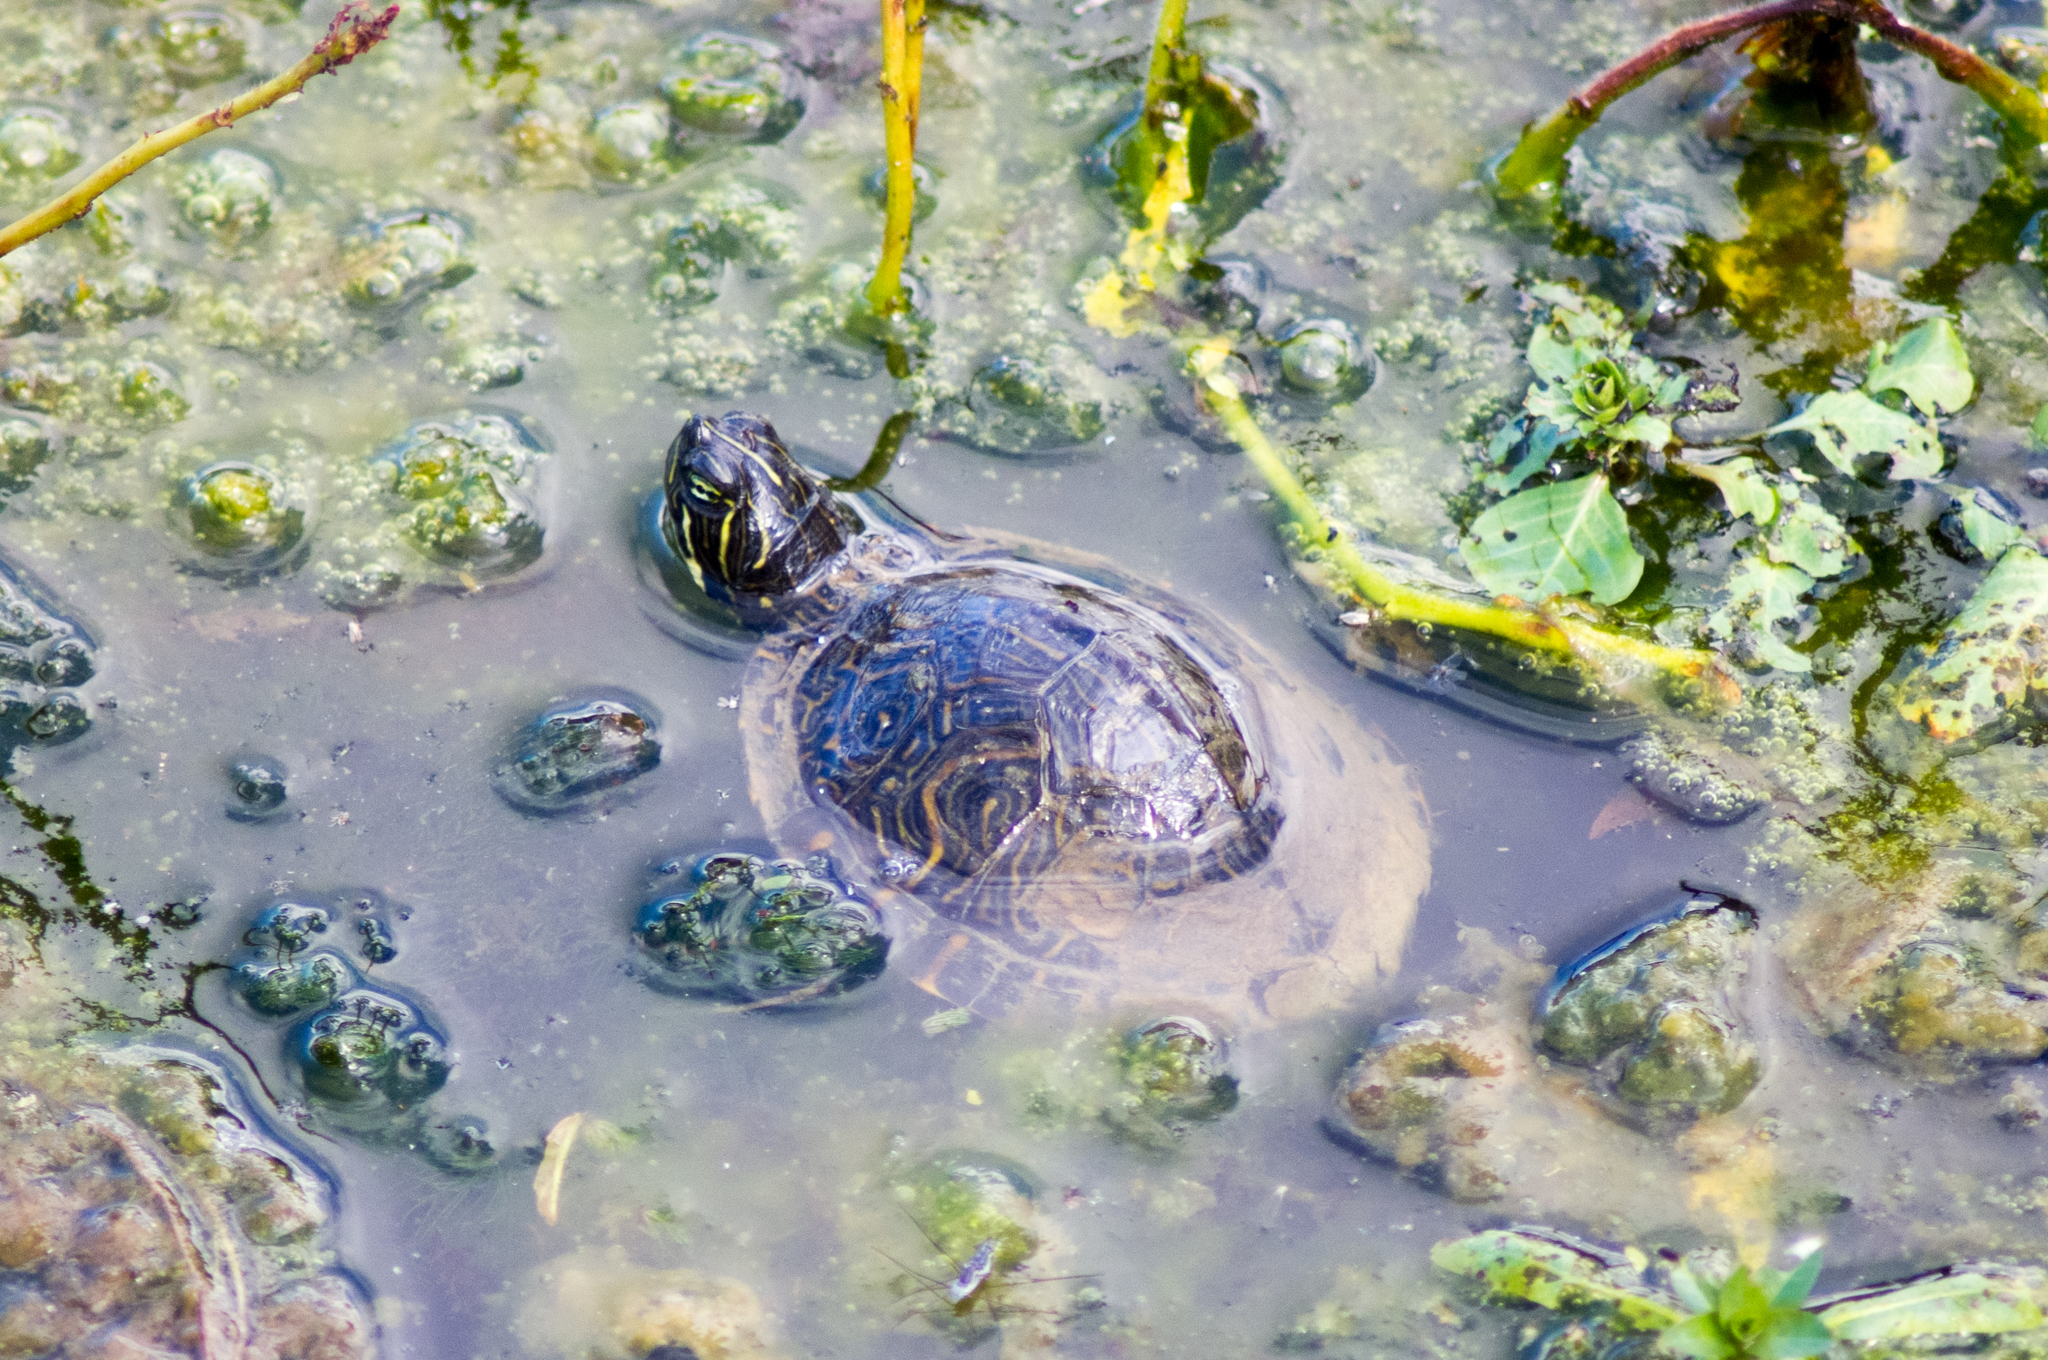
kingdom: Animalia
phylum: Chordata
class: Testudines
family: Emydidae
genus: Pseudemys
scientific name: Pseudemys concinna
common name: Eastern river cooter
